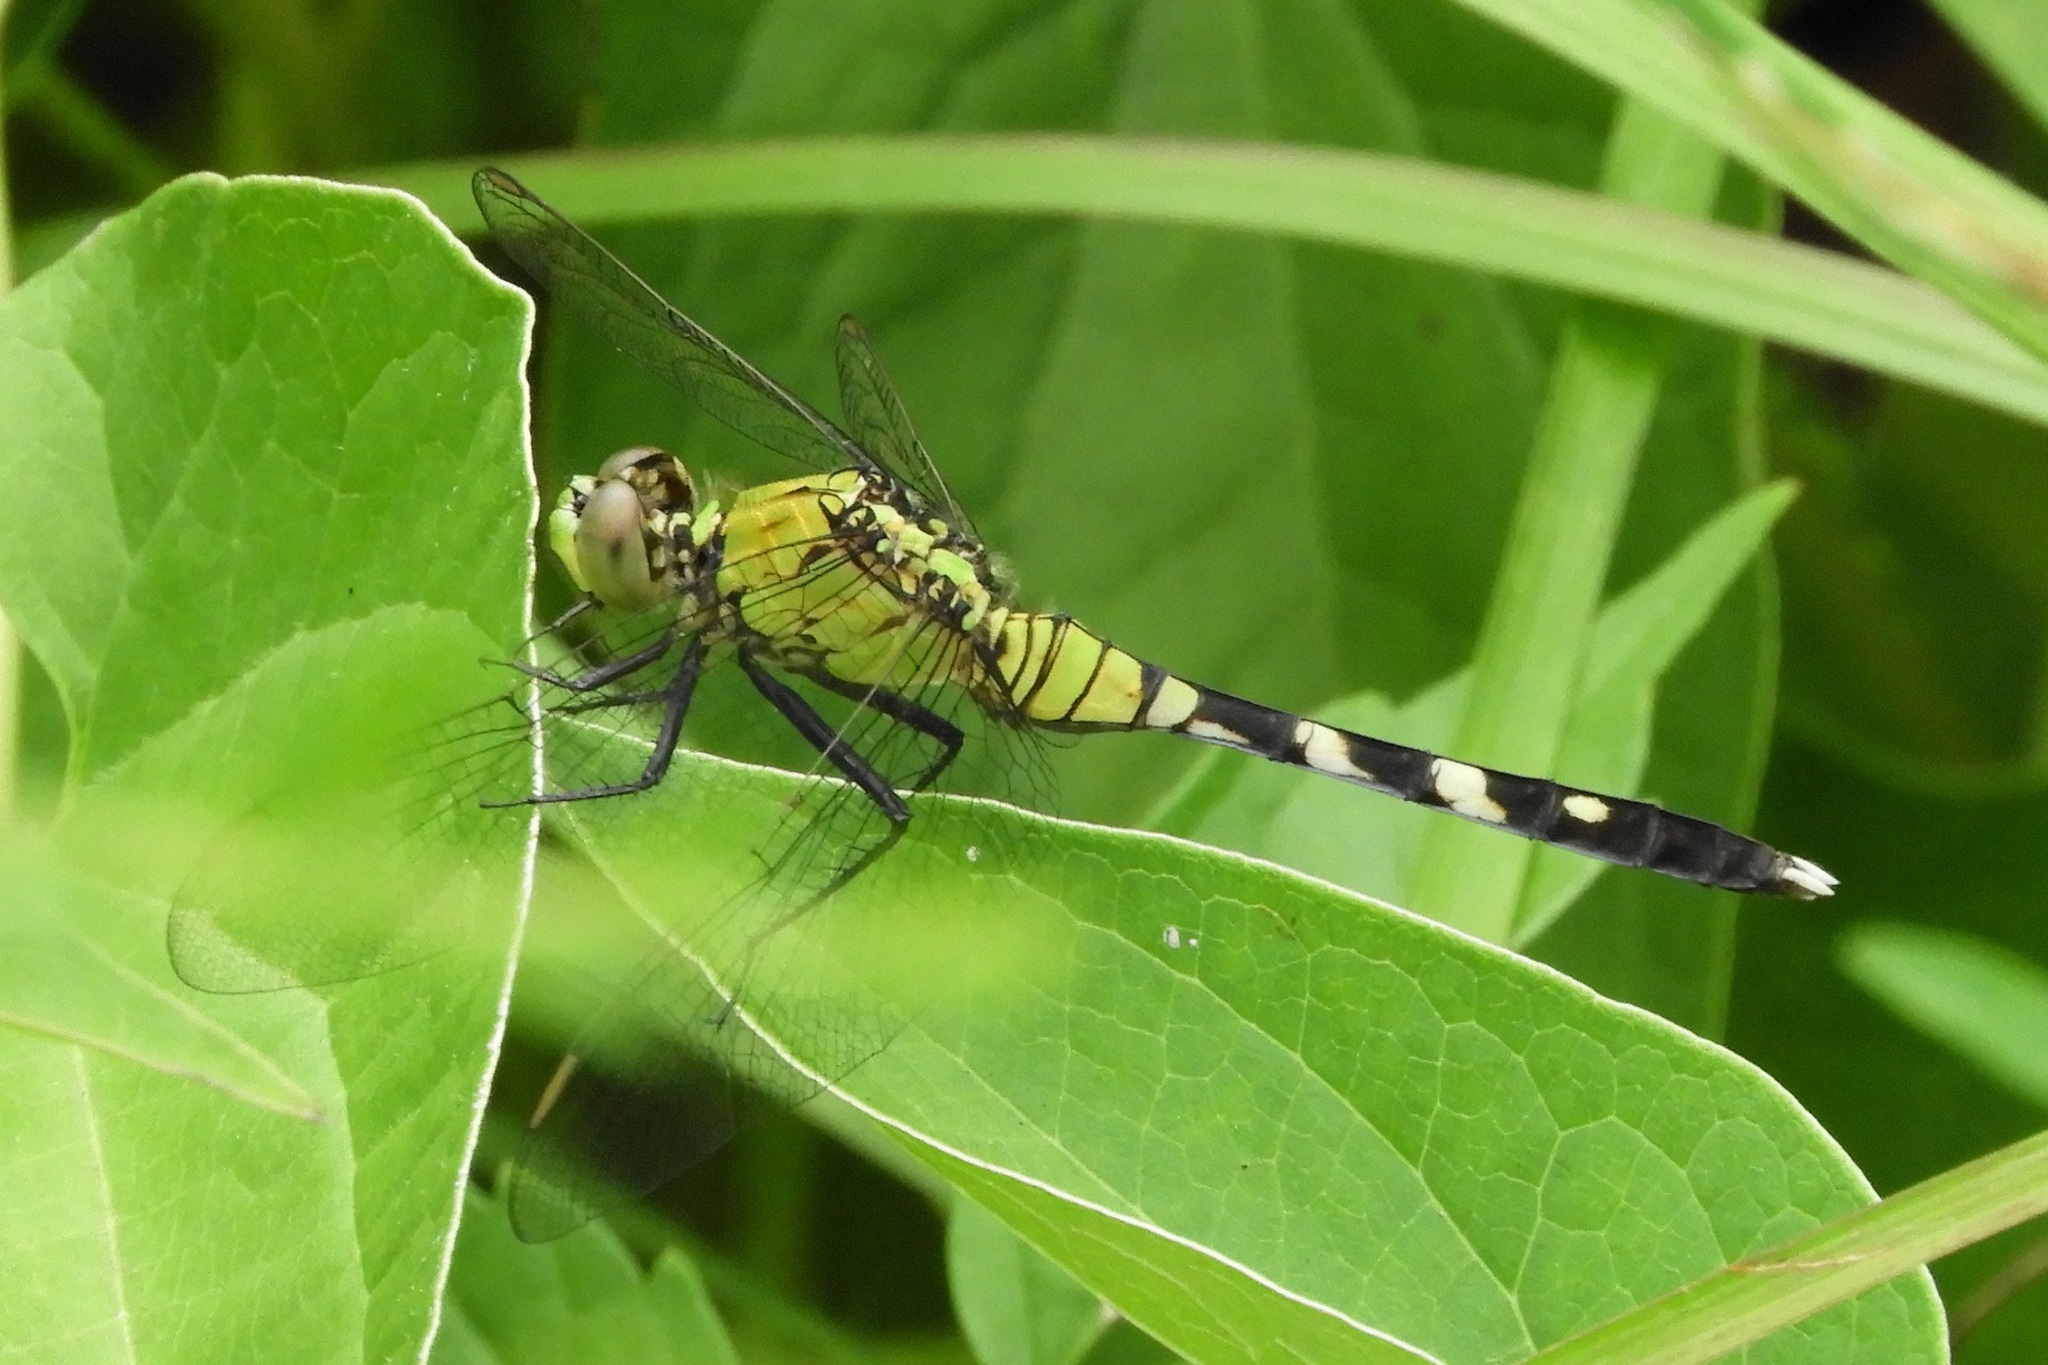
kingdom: Animalia
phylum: Arthropoda
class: Insecta
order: Odonata
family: Libellulidae
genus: Erythemis
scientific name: Erythemis simplicicollis
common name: Eastern pondhawk
